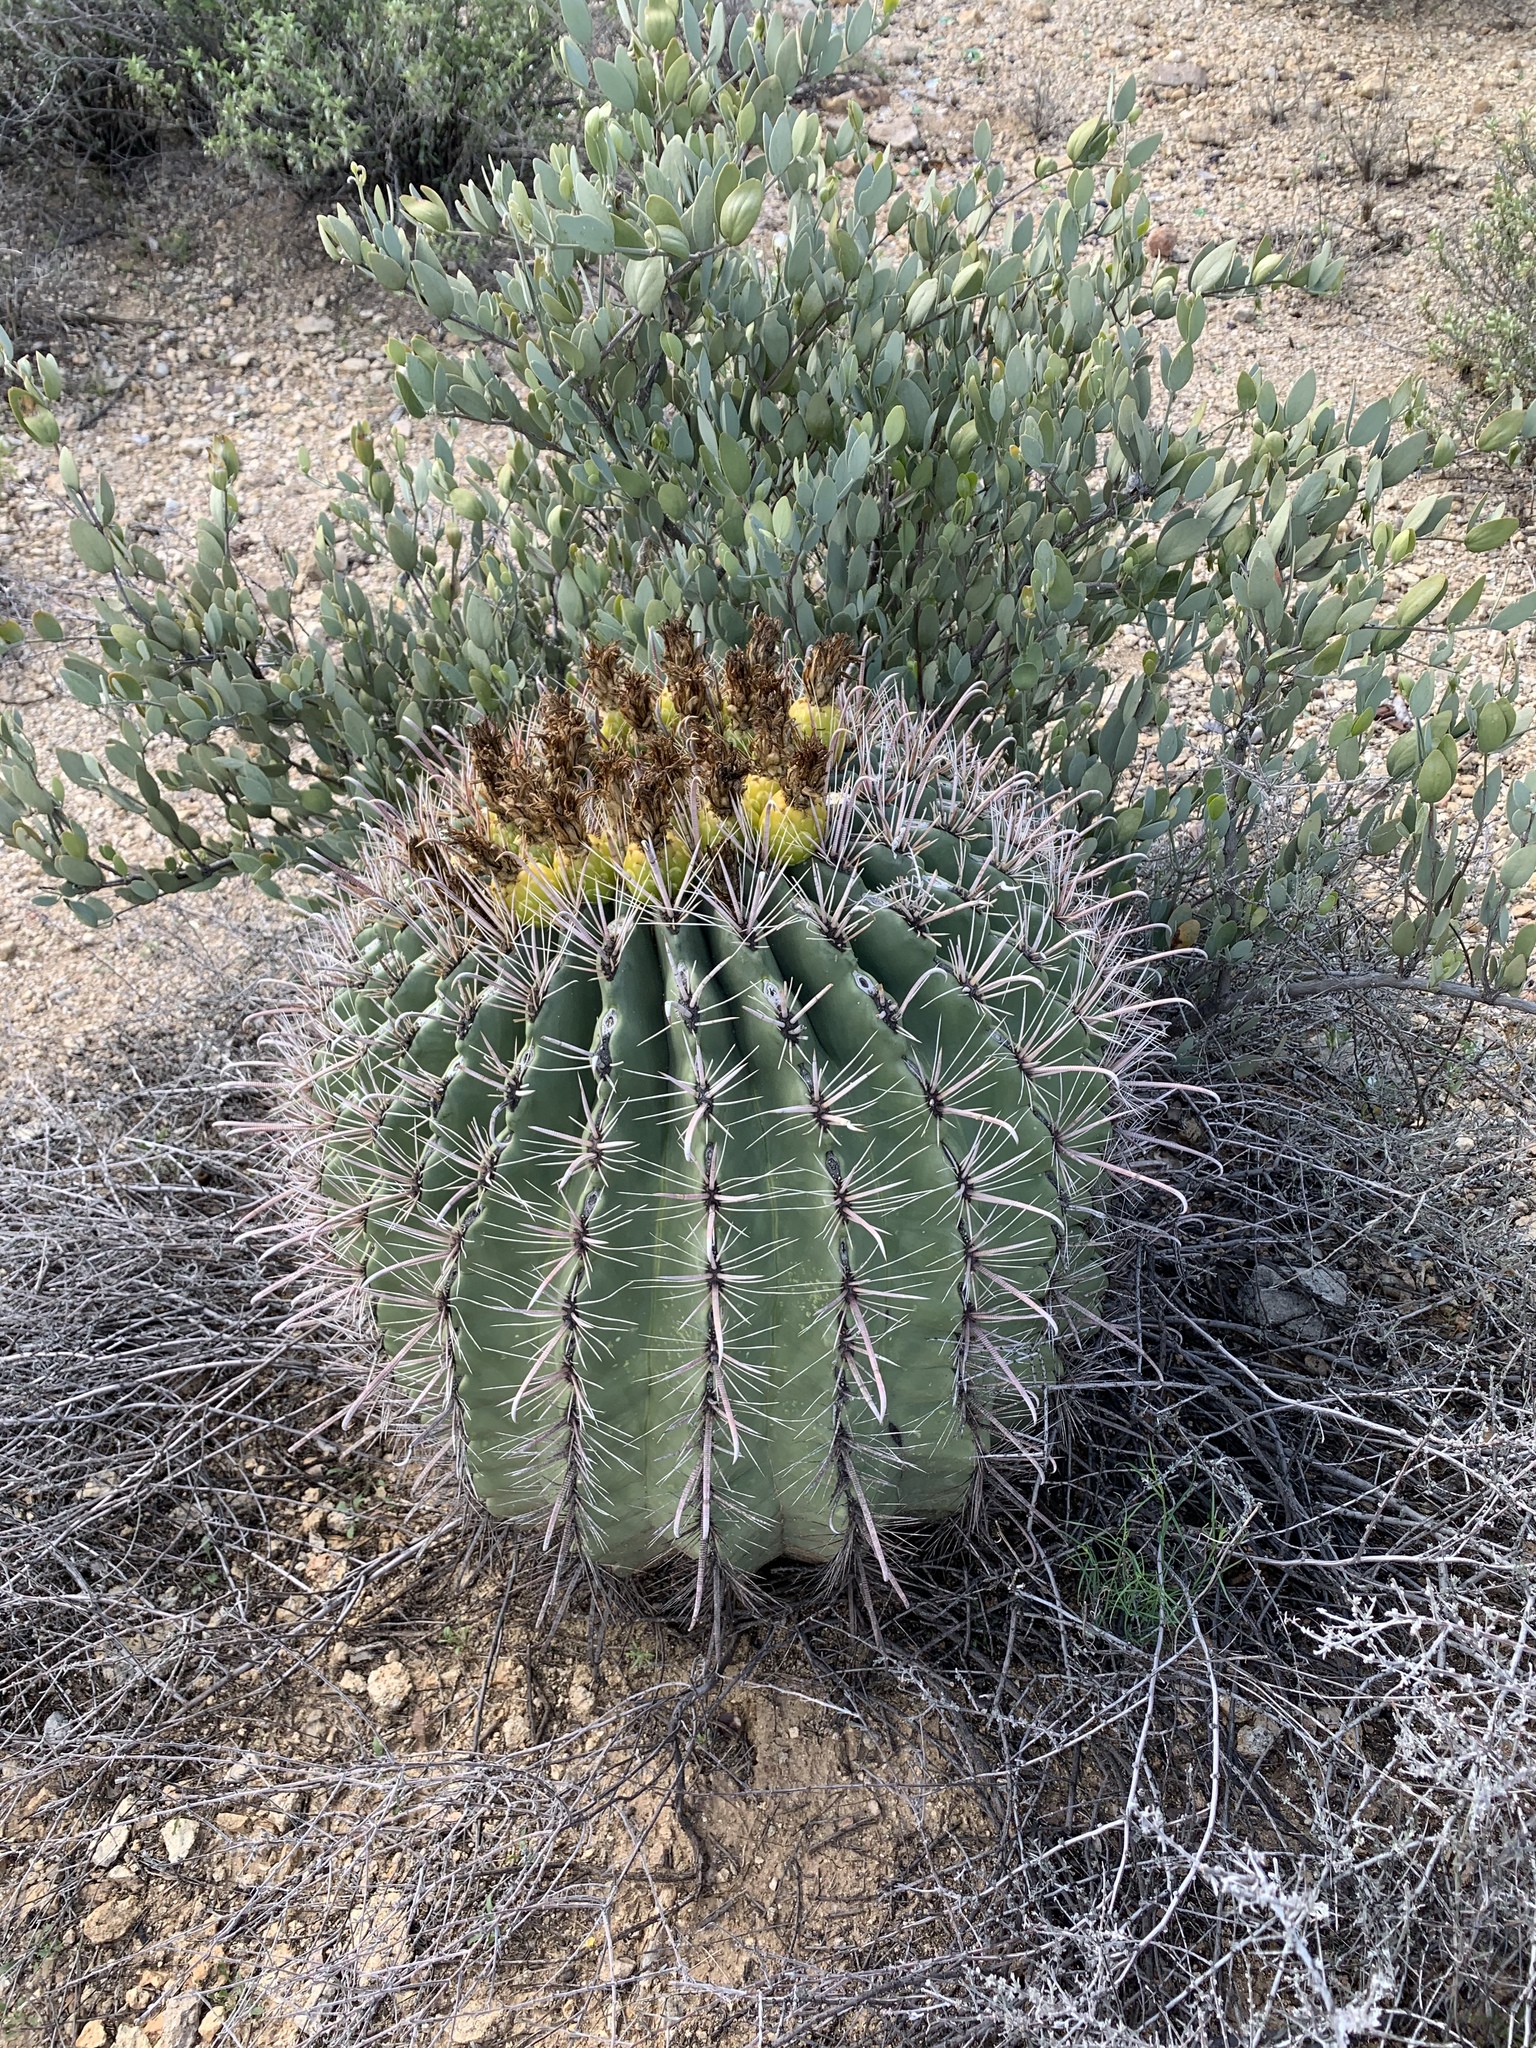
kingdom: Plantae
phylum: Tracheophyta
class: Magnoliopsida
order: Caryophyllales
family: Cactaceae
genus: Ferocactus
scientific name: Ferocactus wislizeni
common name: Candy barrel cactus
